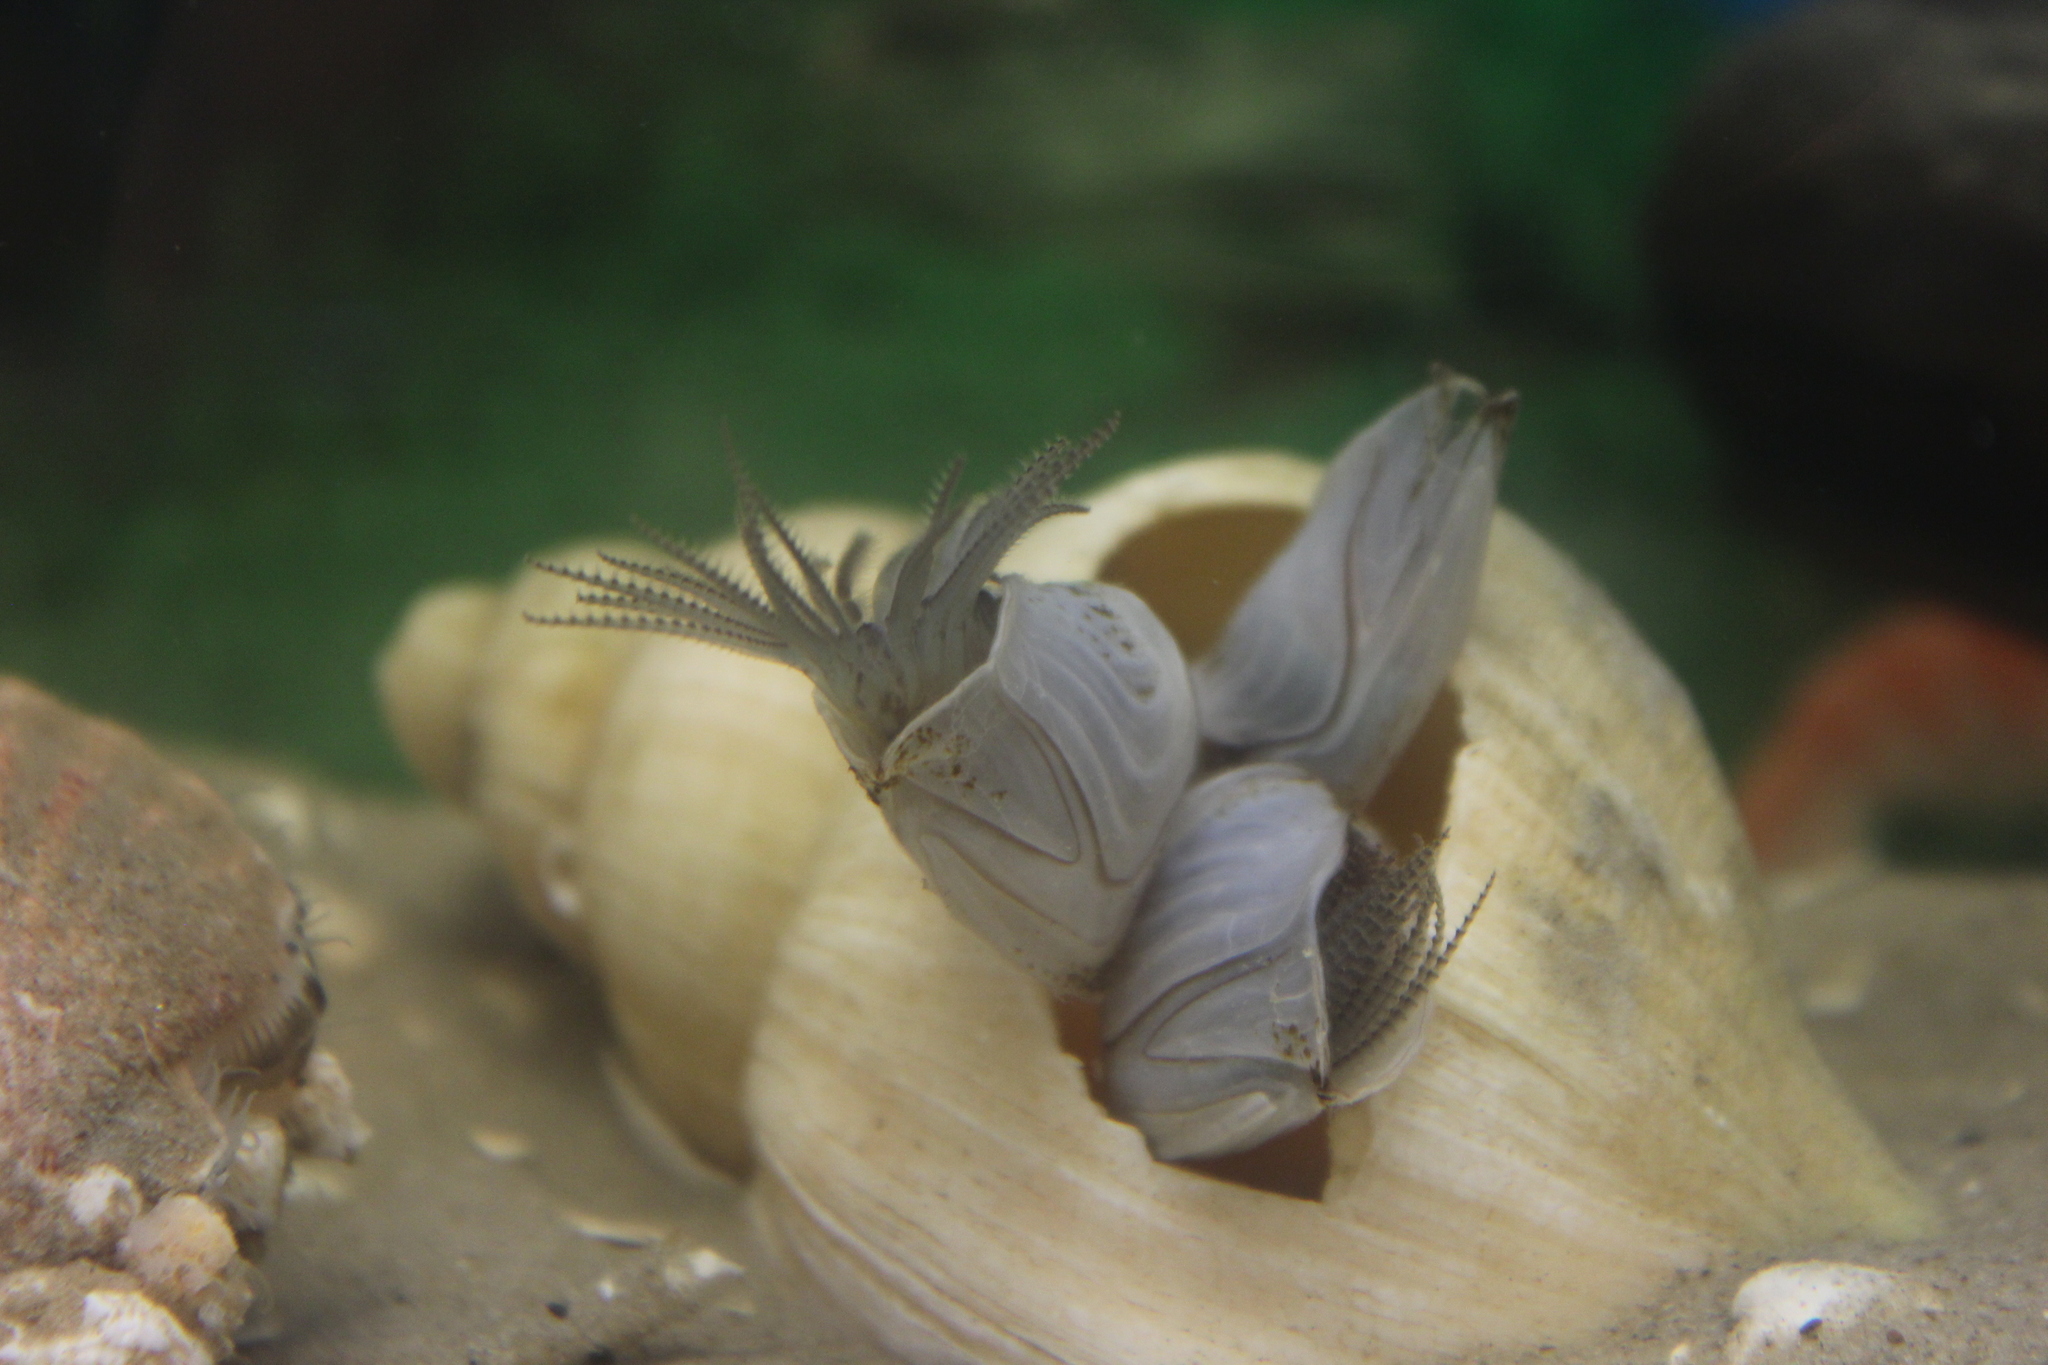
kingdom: Animalia
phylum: Arthropoda
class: Maxillopoda
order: Pedunculata
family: Lepadidae
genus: Dosima
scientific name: Dosima fascicularis
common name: Buoy barnacle
